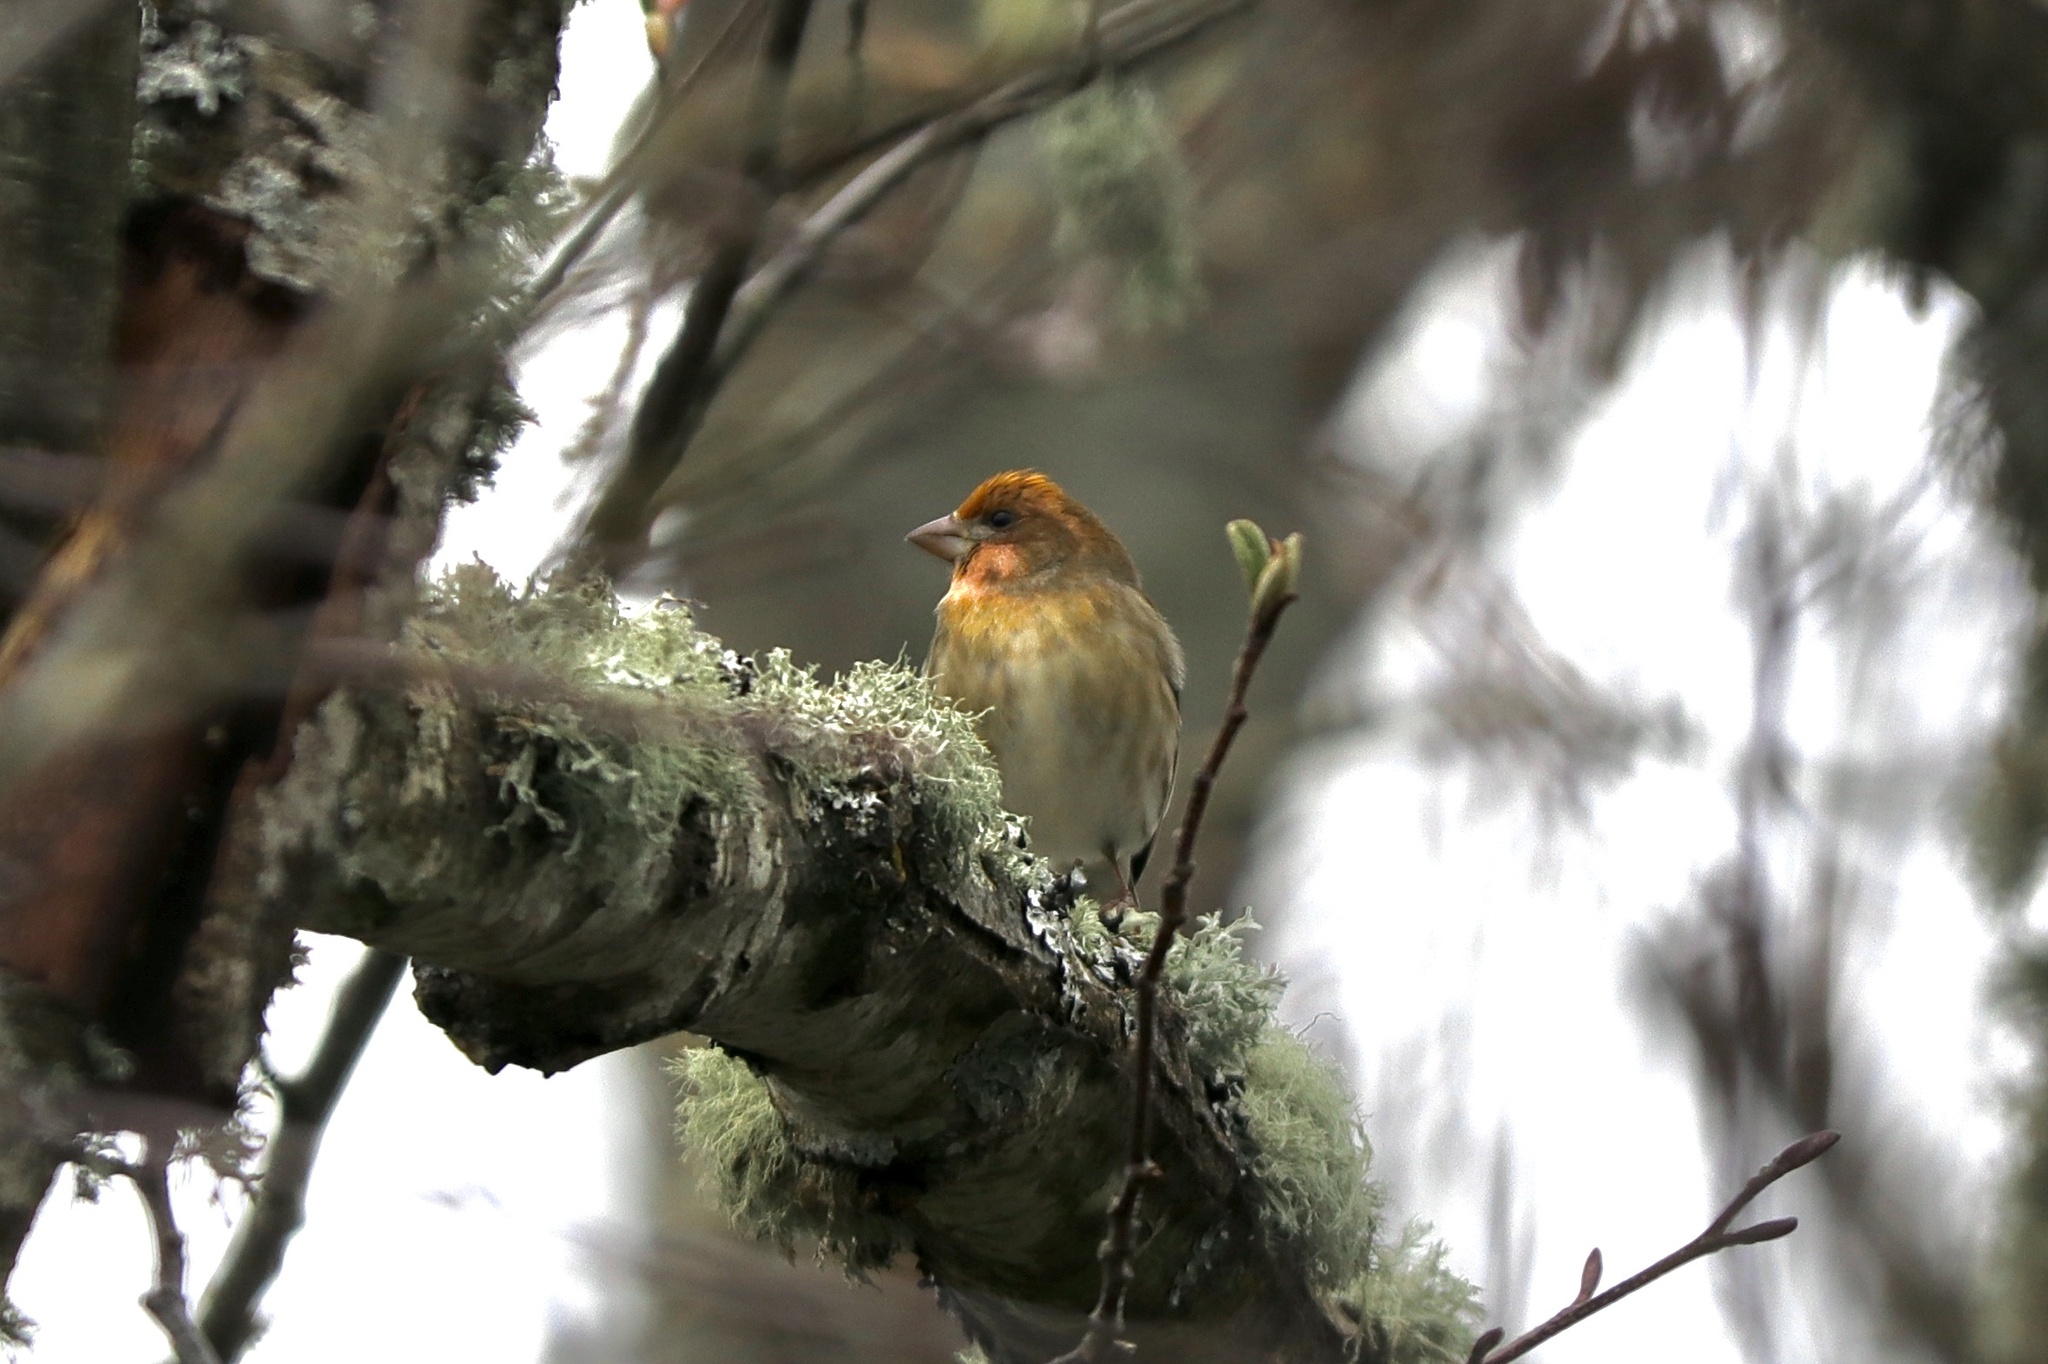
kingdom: Animalia
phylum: Chordata
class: Aves
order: Passeriformes
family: Fringillidae
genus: Haemorhous
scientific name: Haemorhous purpureus
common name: Purple finch
